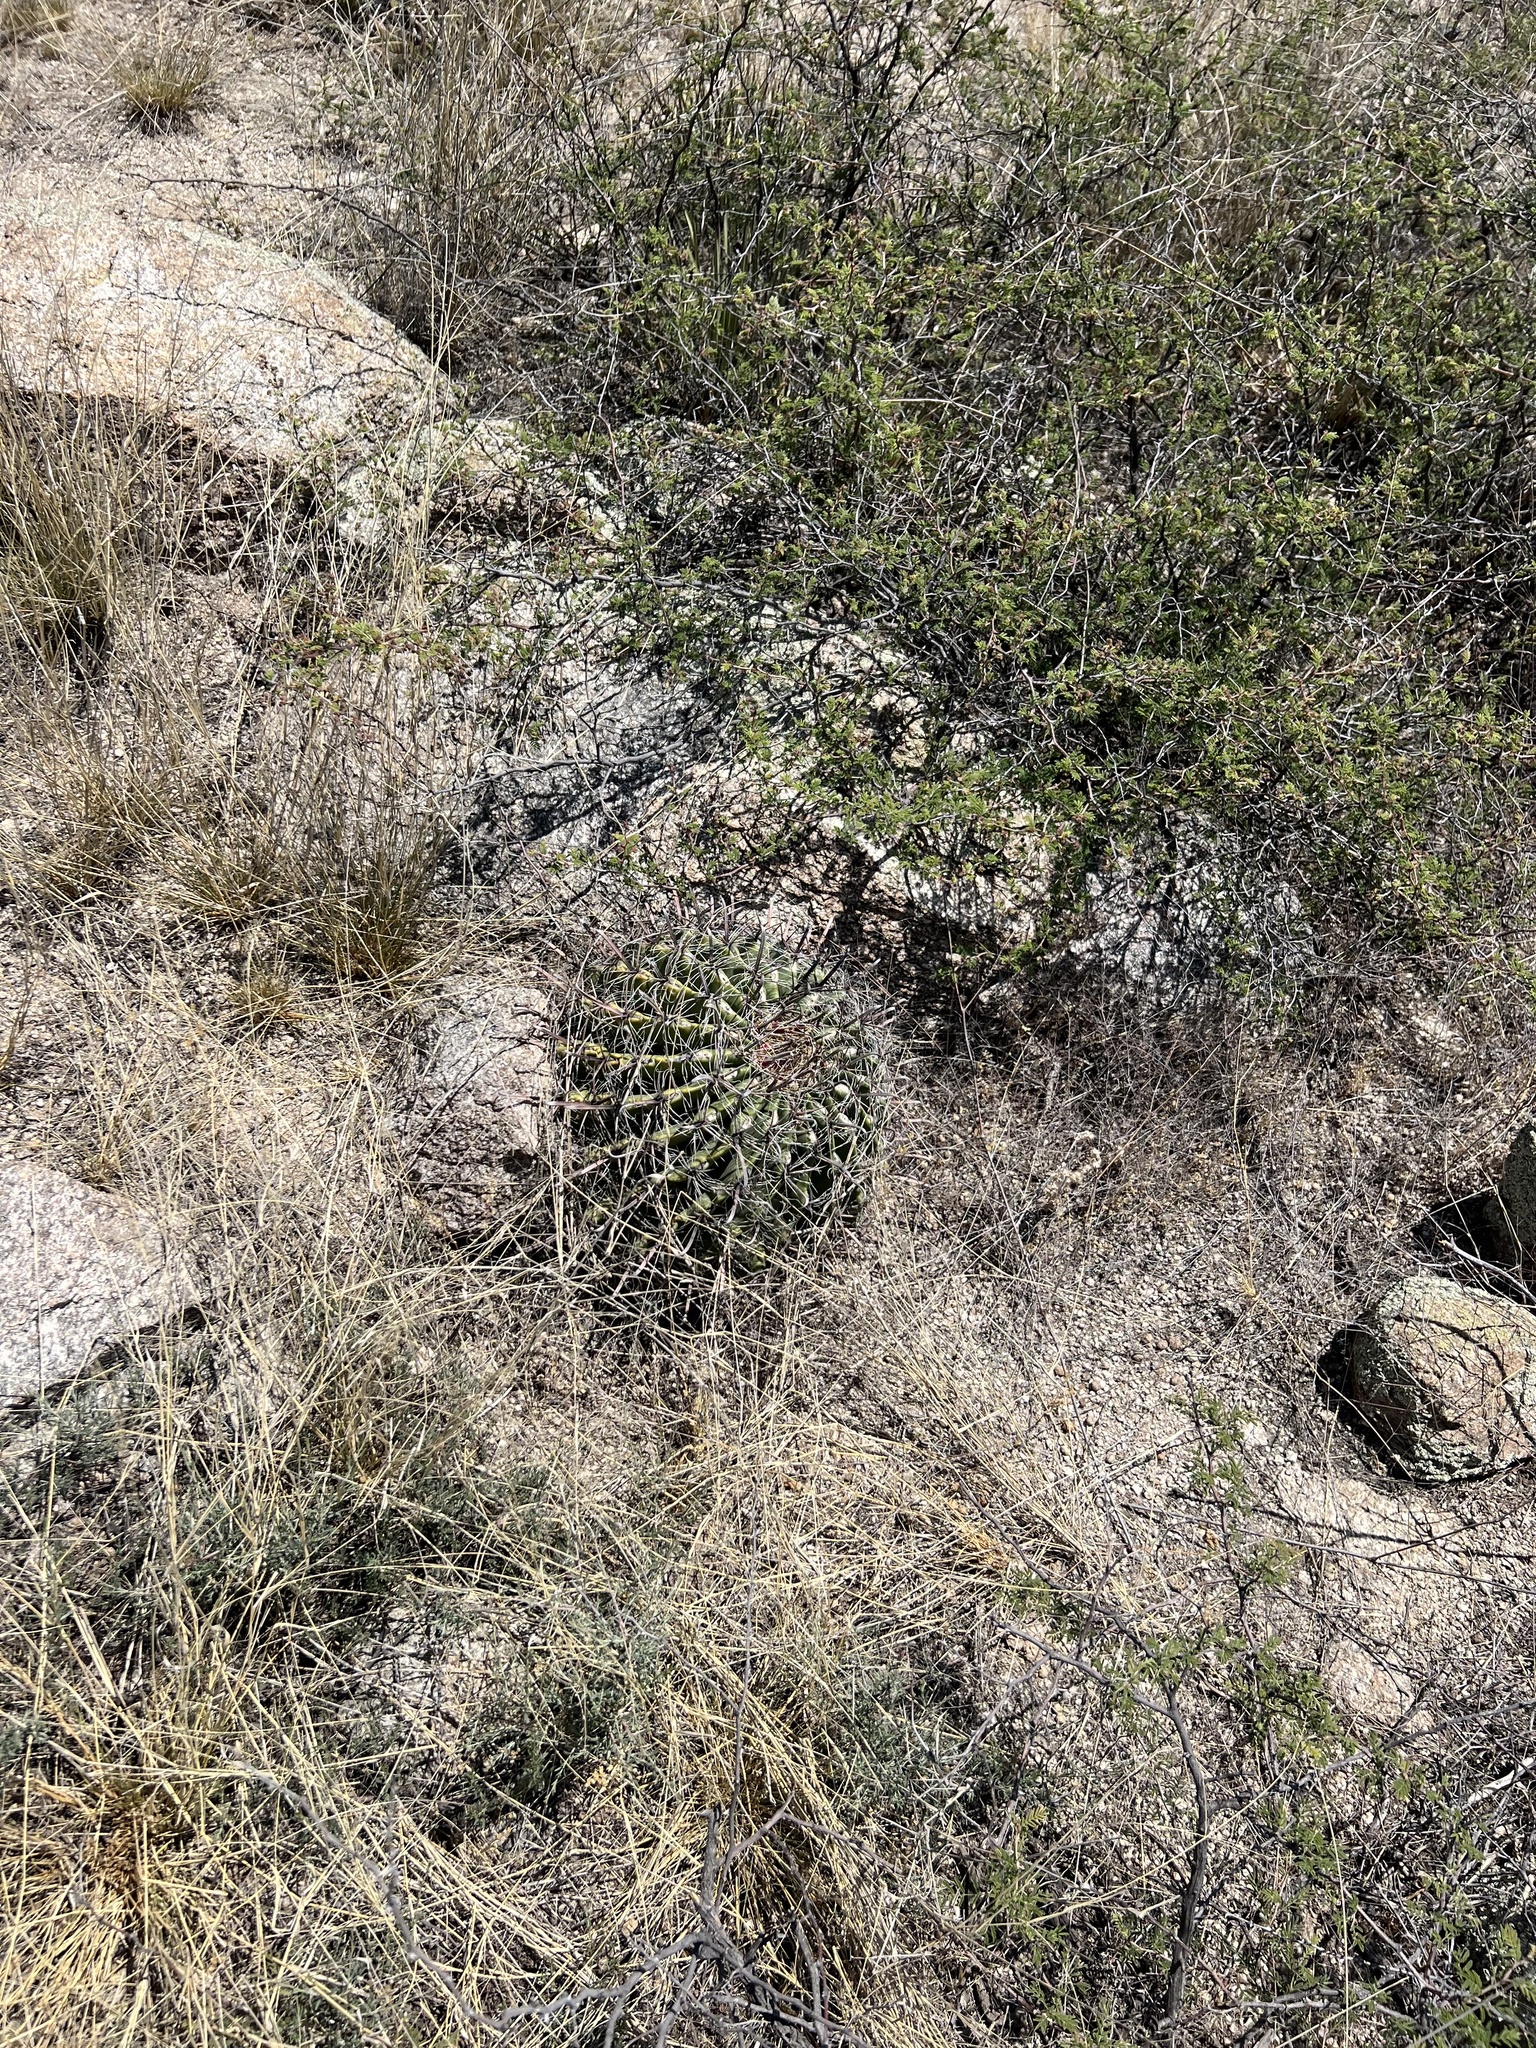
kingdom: Plantae
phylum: Tracheophyta
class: Magnoliopsida
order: Caryophyllales
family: Cactaceae
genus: Ferocactus
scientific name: Ferocactus wislizeni
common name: Candy barrel cactus
